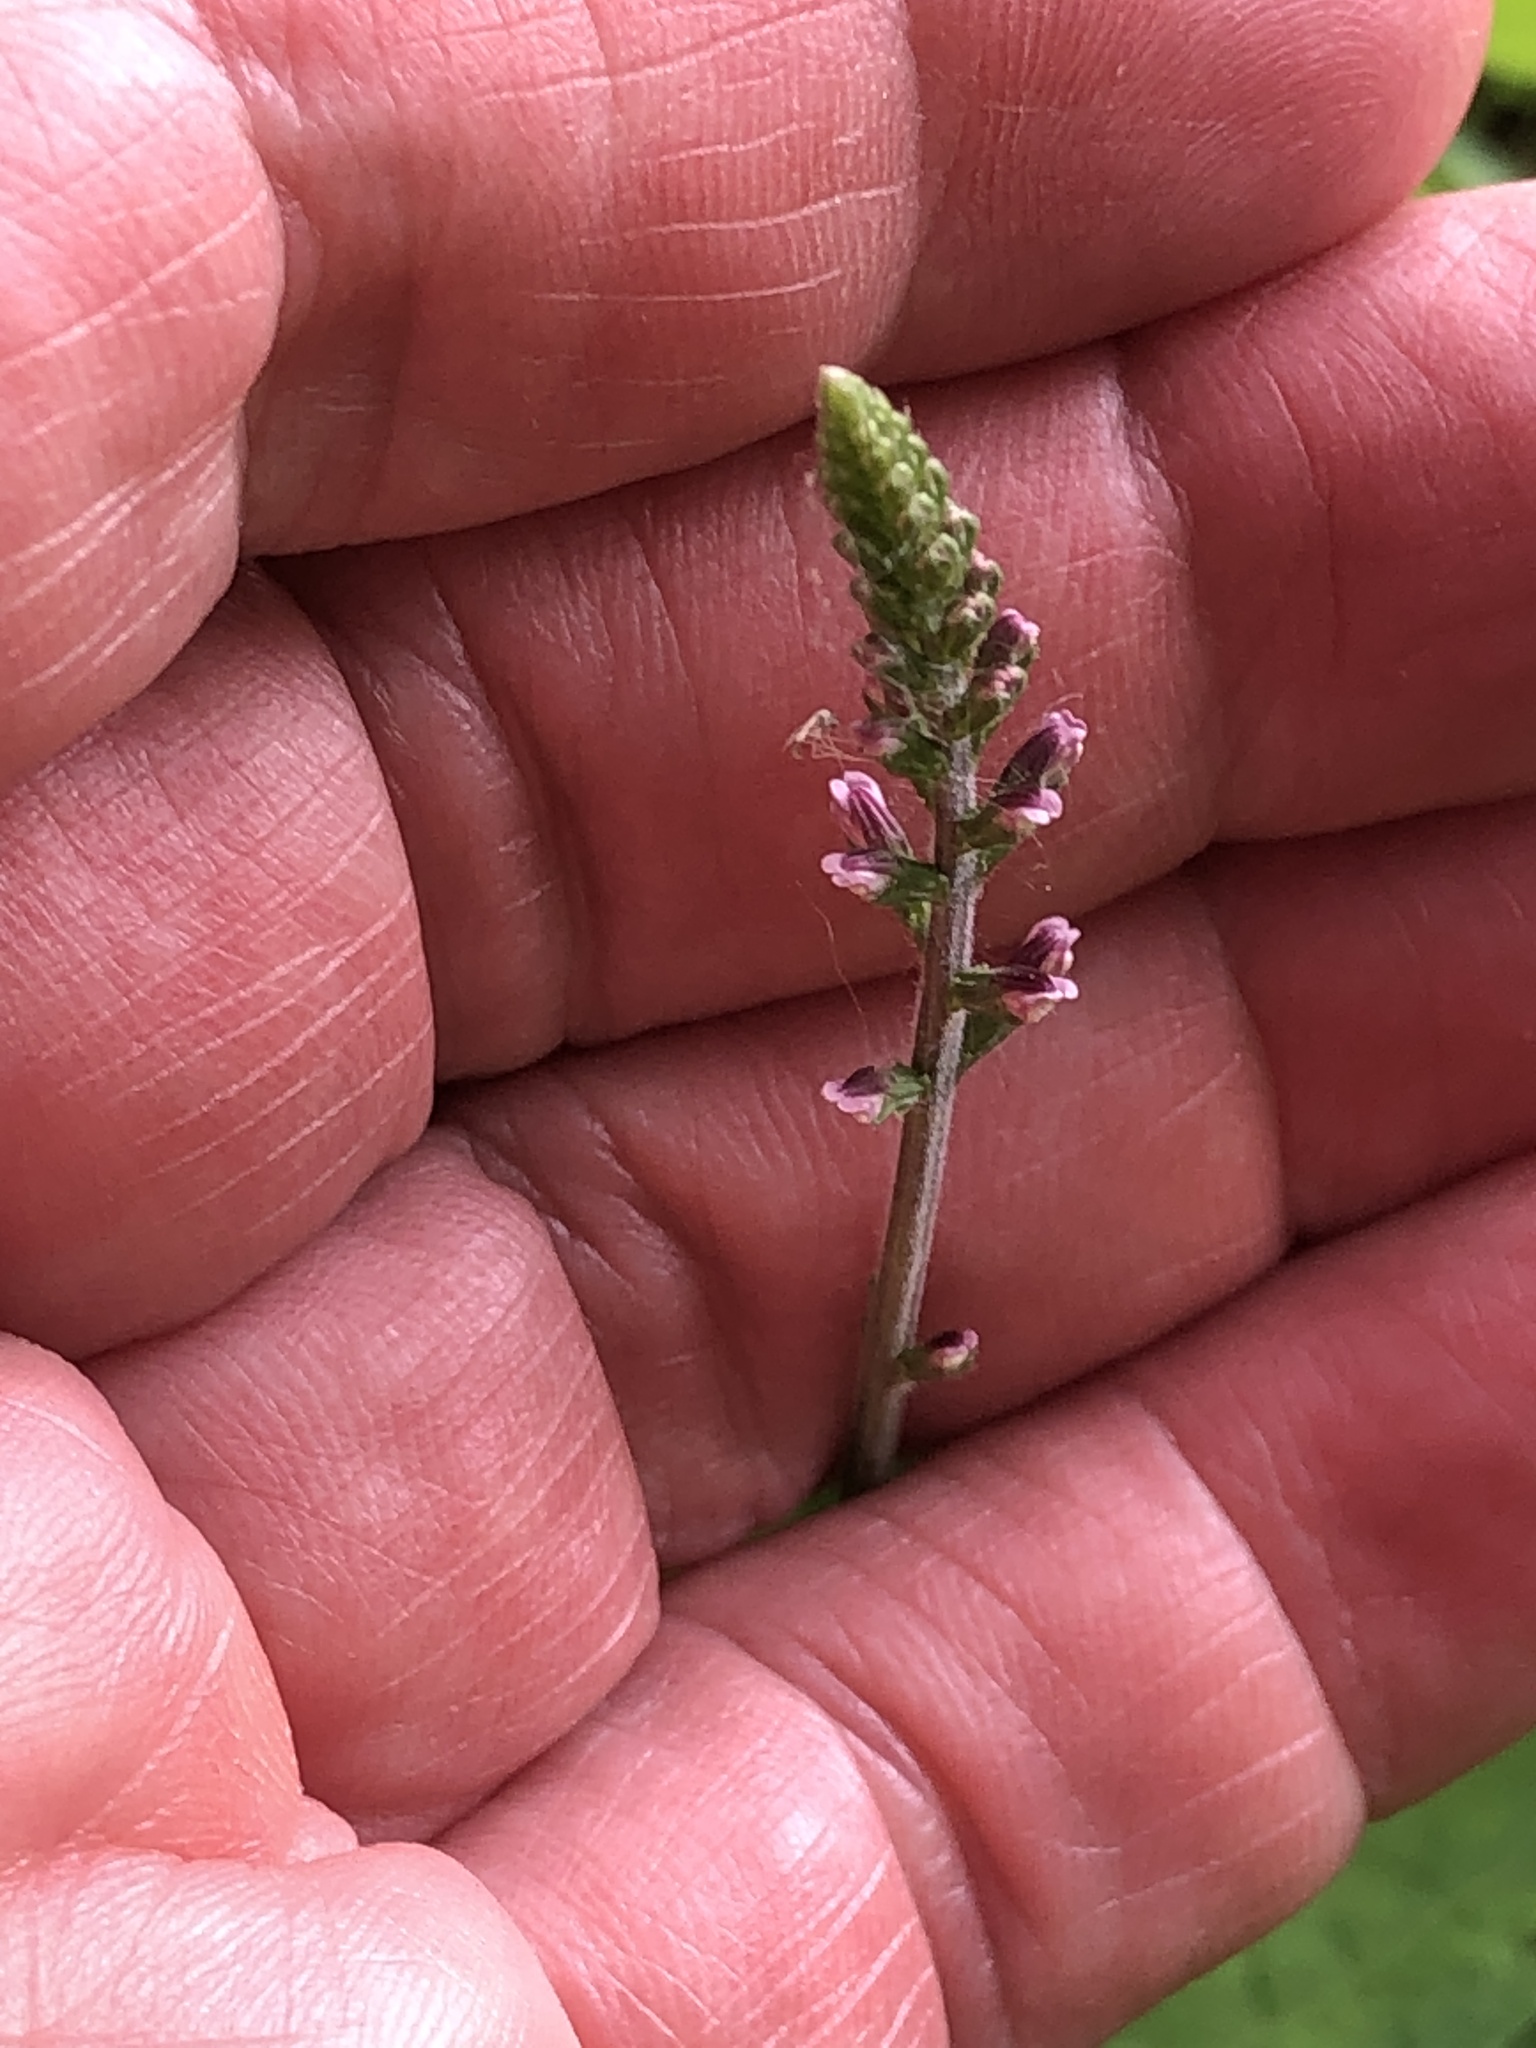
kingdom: Plantae
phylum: Tracheophyta
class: Magnoliopsida
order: Lamiales
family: Phrymaceae
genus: Phryma
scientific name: Phryma leptostachya
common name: American lopseed
